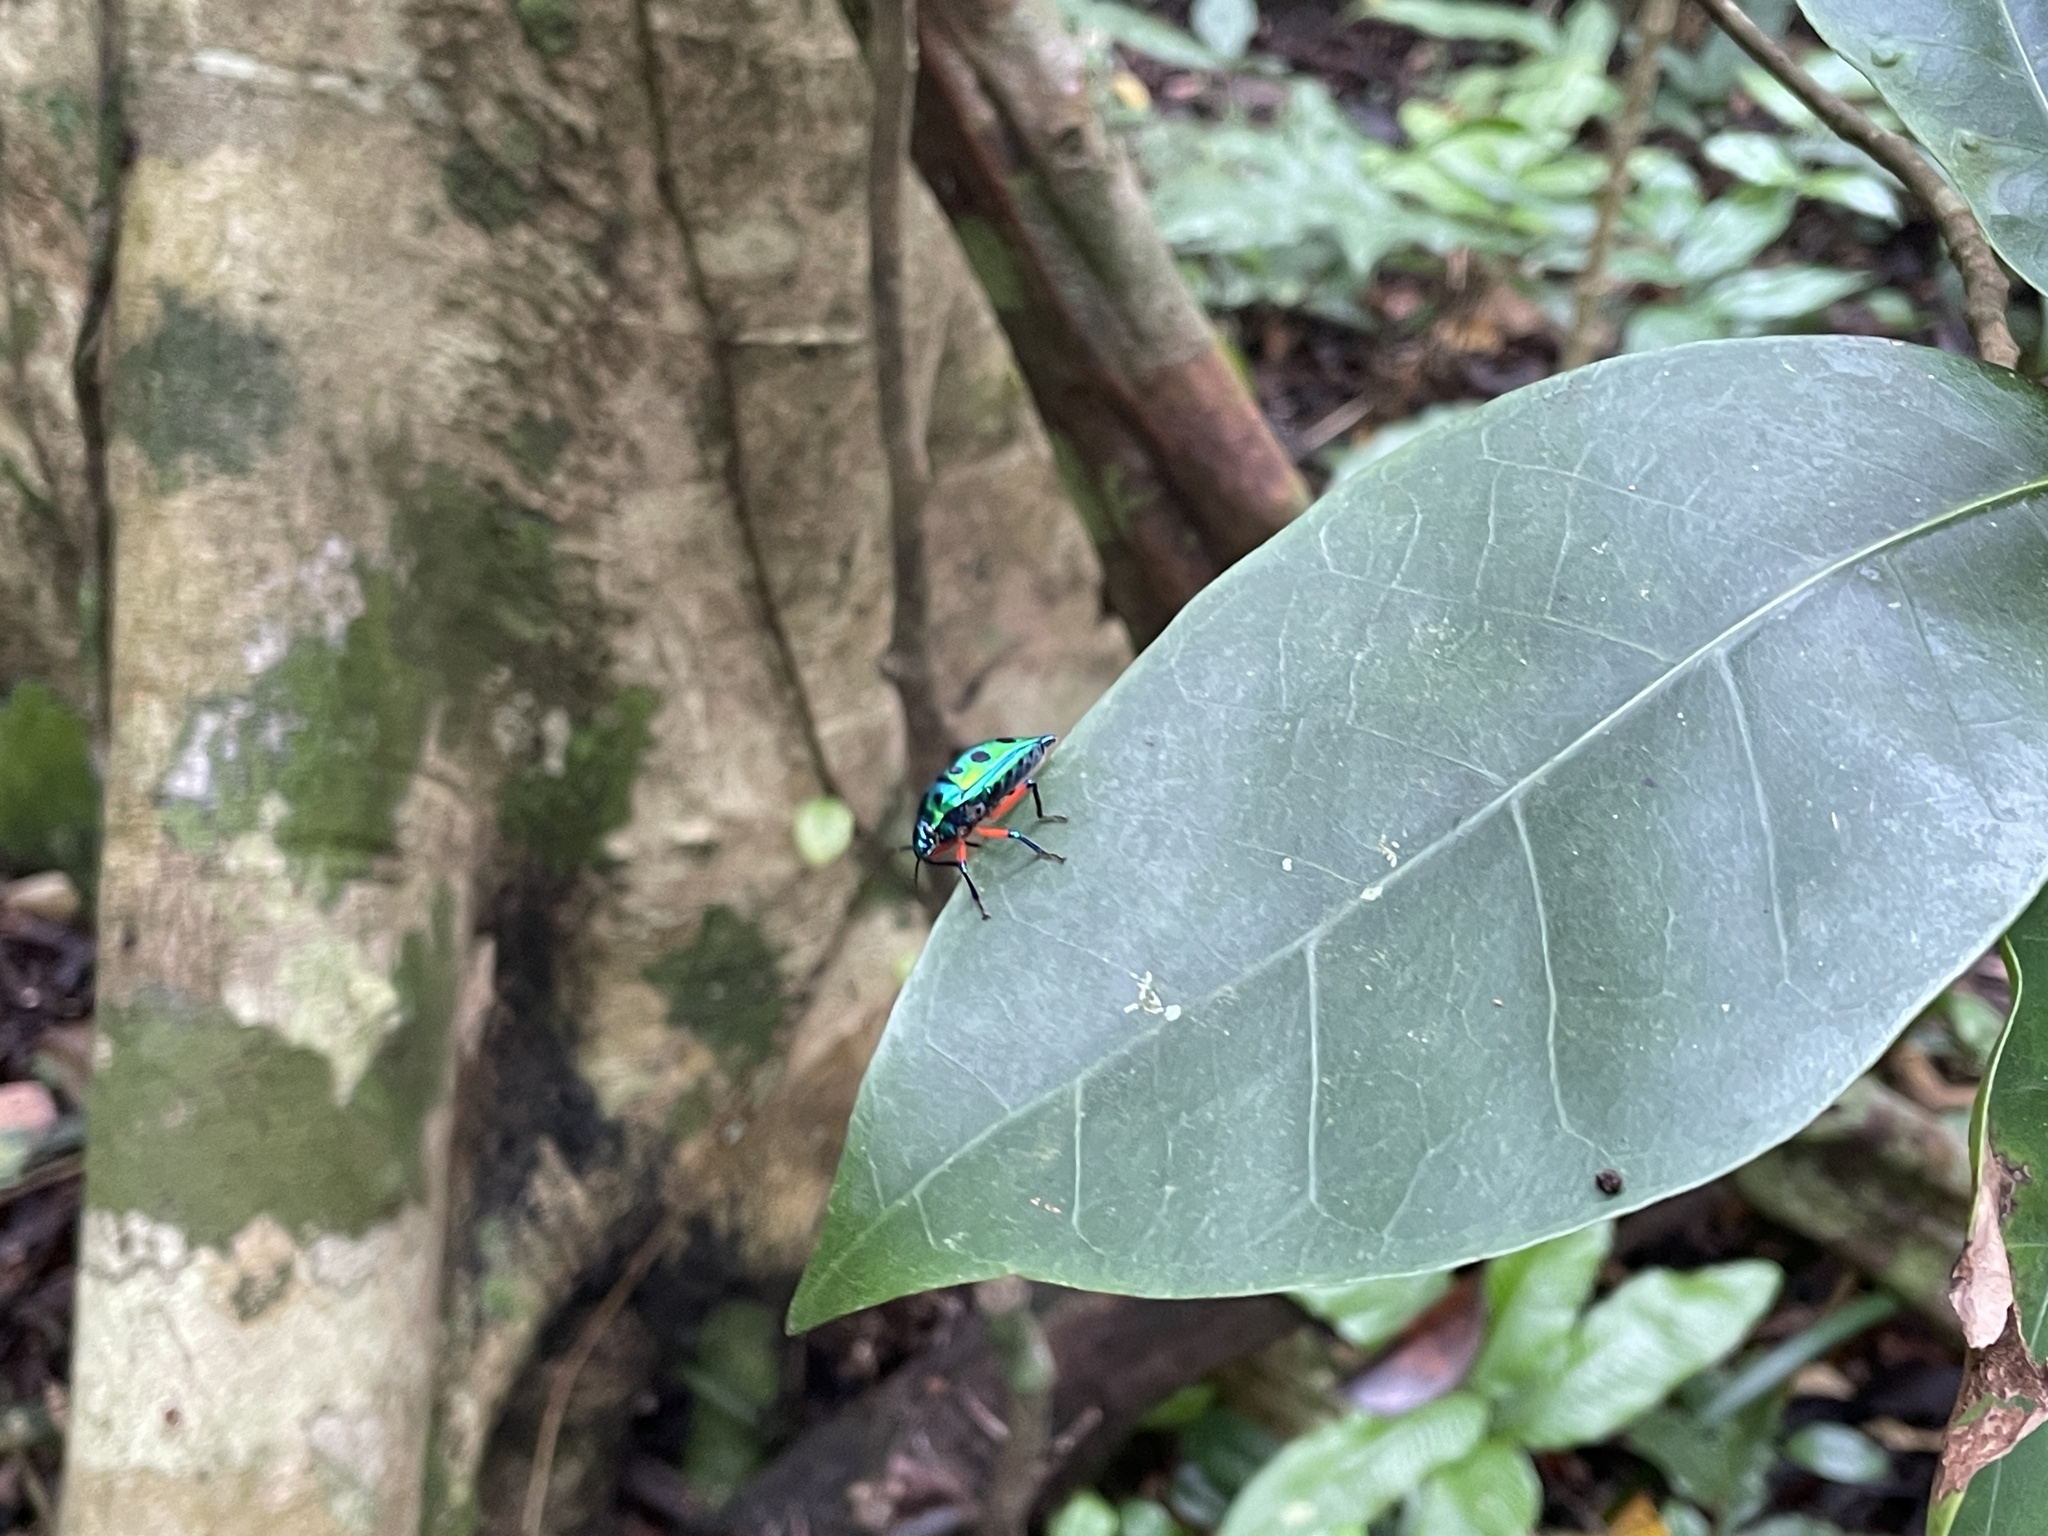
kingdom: Animalia
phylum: Arthropoda
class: Insecta
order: Hemiptera
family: Scutelleridae
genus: Calliphara
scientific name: Calliphara excellens
